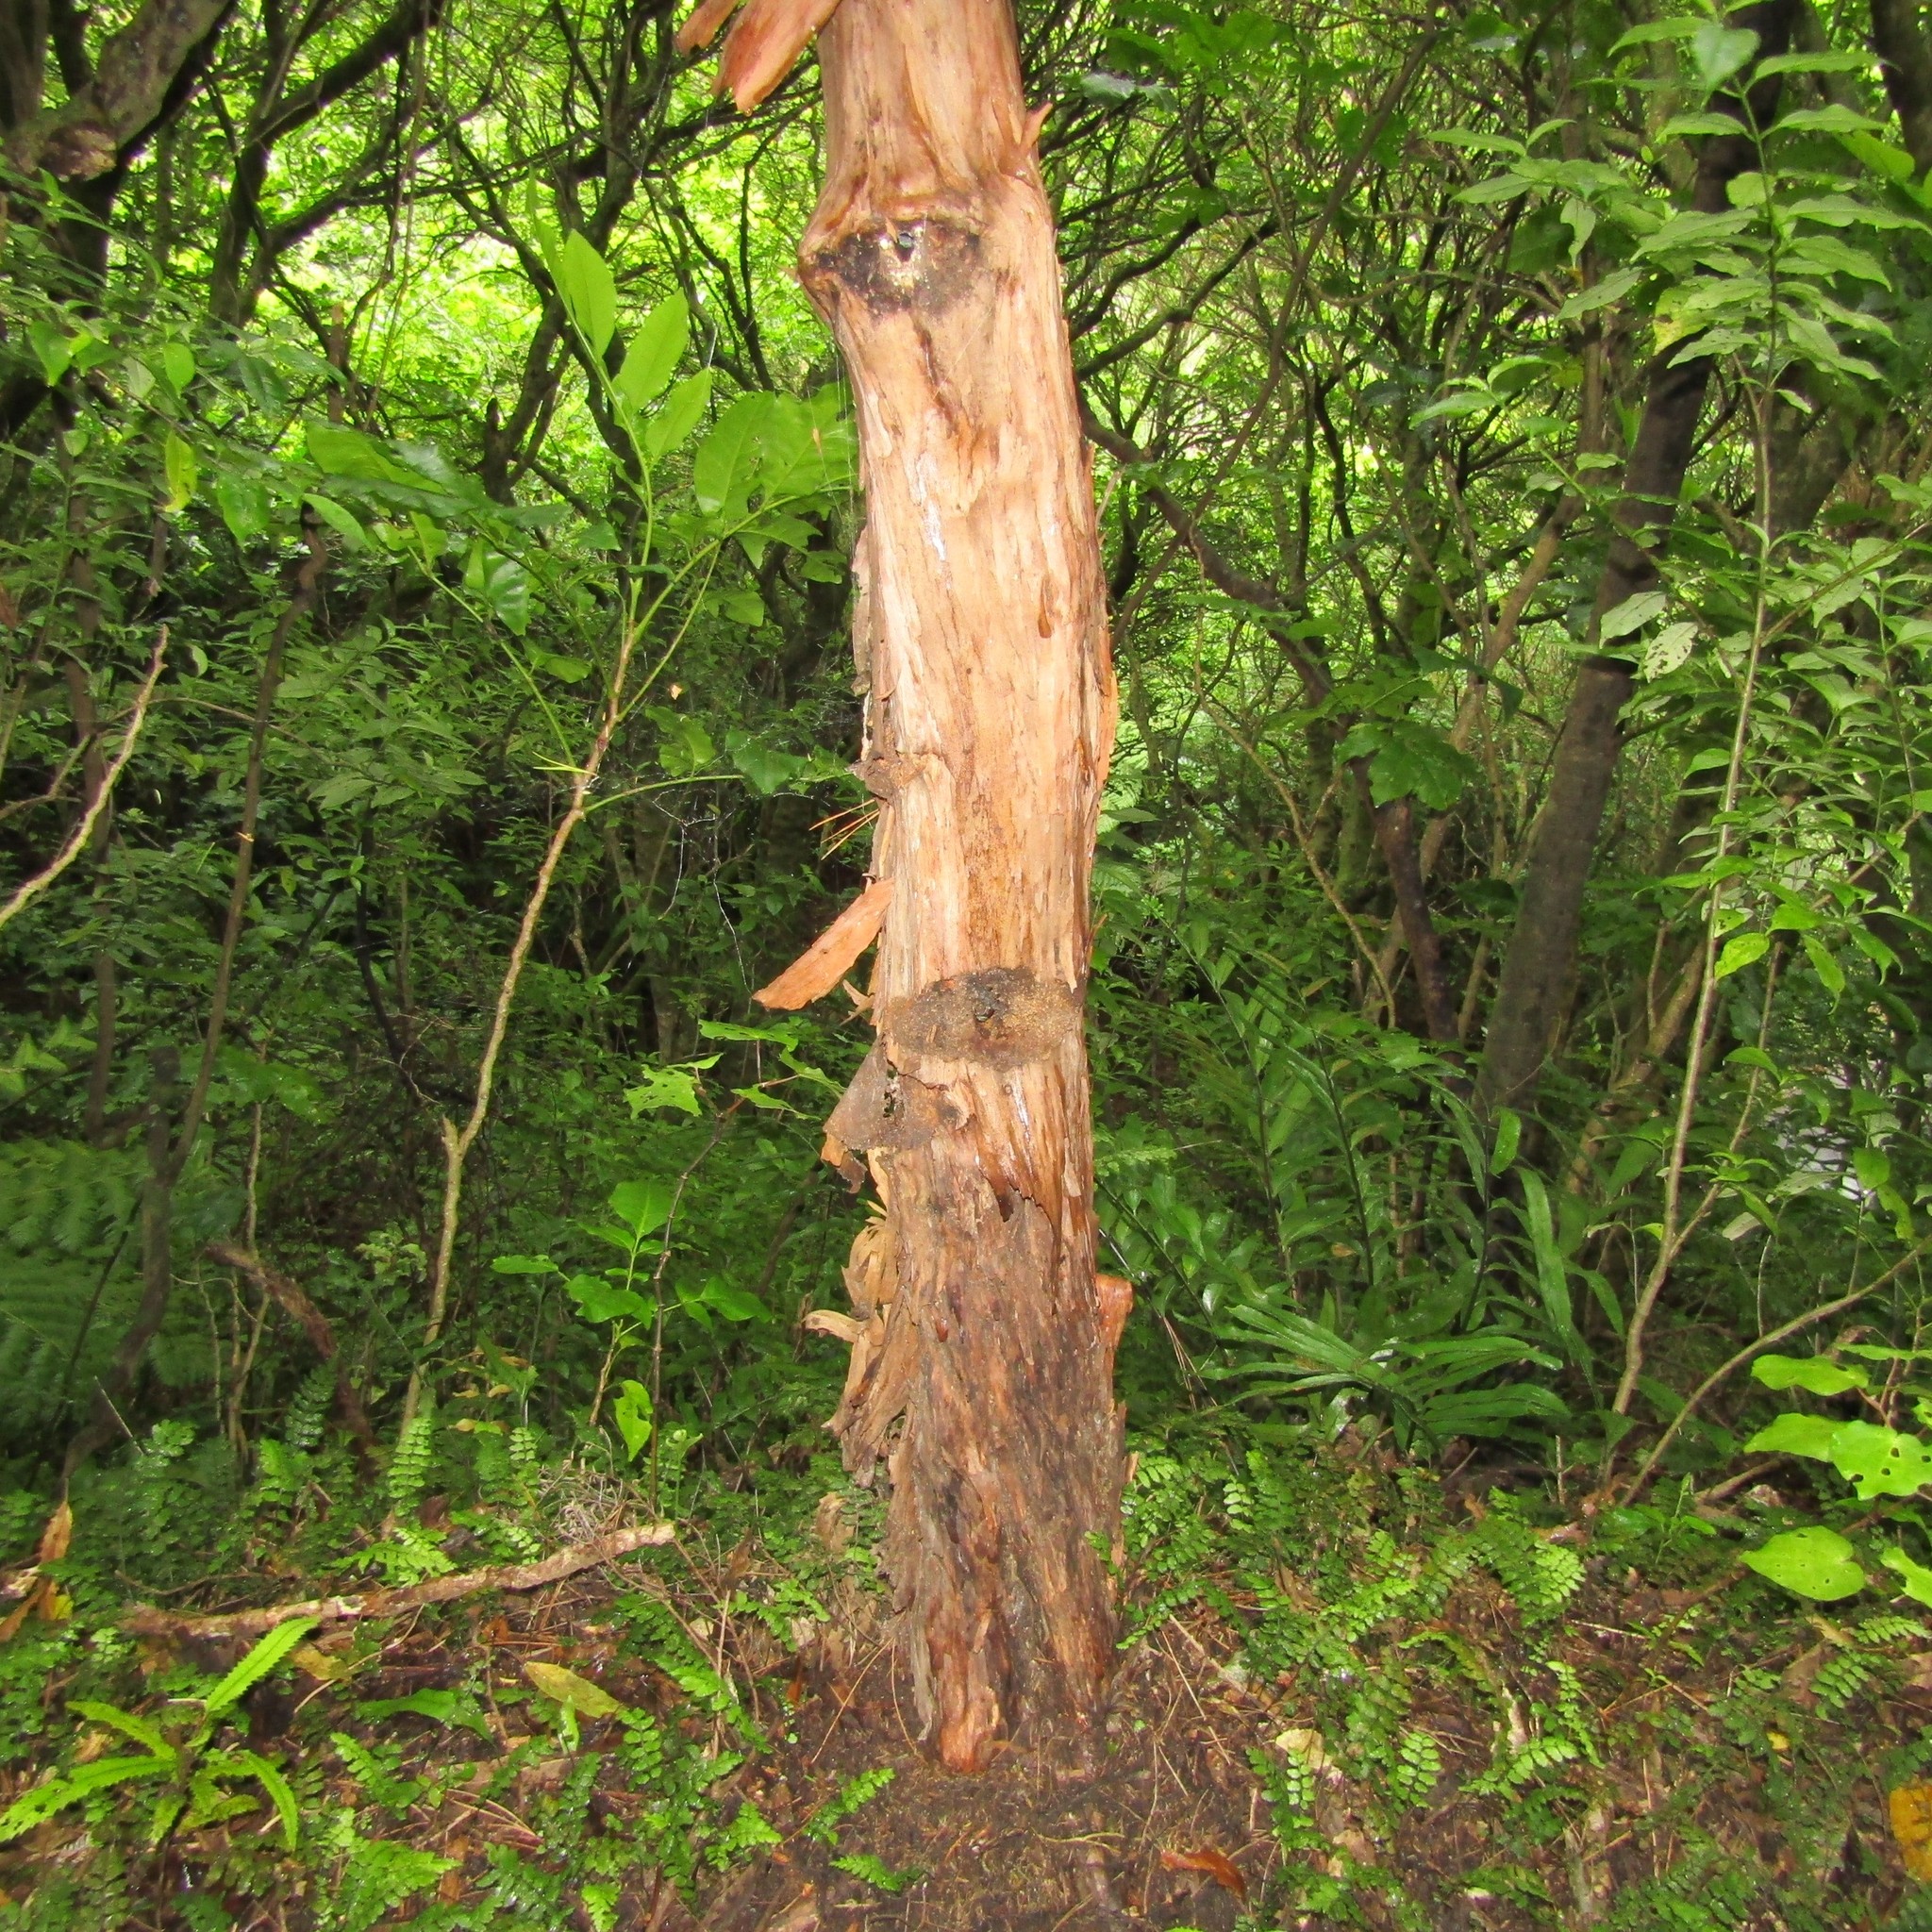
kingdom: Plantae
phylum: Tracheophyta
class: Magnoliopsida
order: Myrtales
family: Myrtaceae
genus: Kunzea
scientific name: Kunzea ericoides
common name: Burgan
